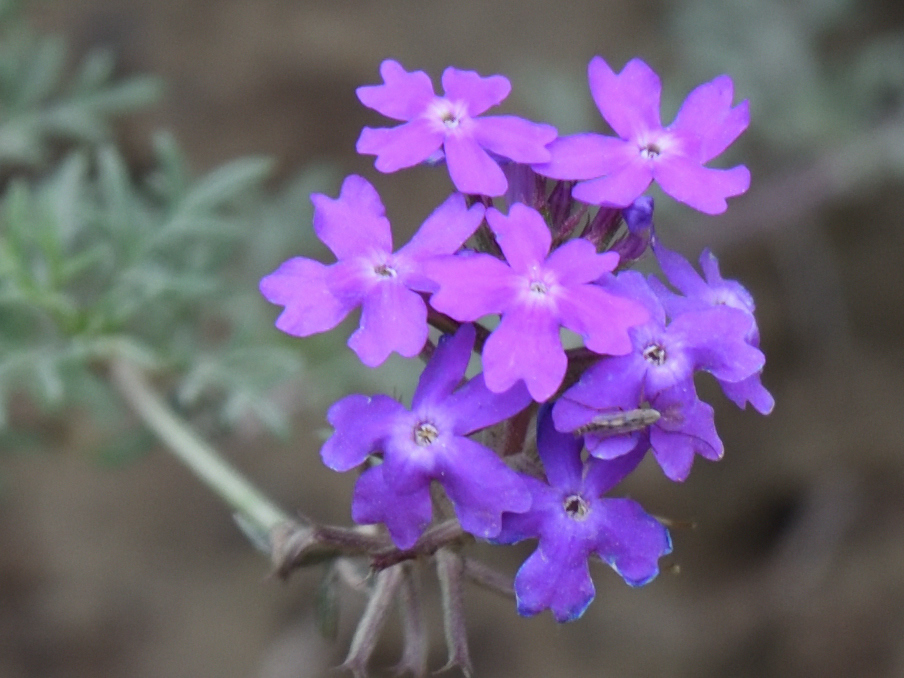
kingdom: Plantae
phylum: Tracheophyta
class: Magnoliopsida
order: Lamiales
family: Verbenaceae
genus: Verbena
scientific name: Verbena aristigera
